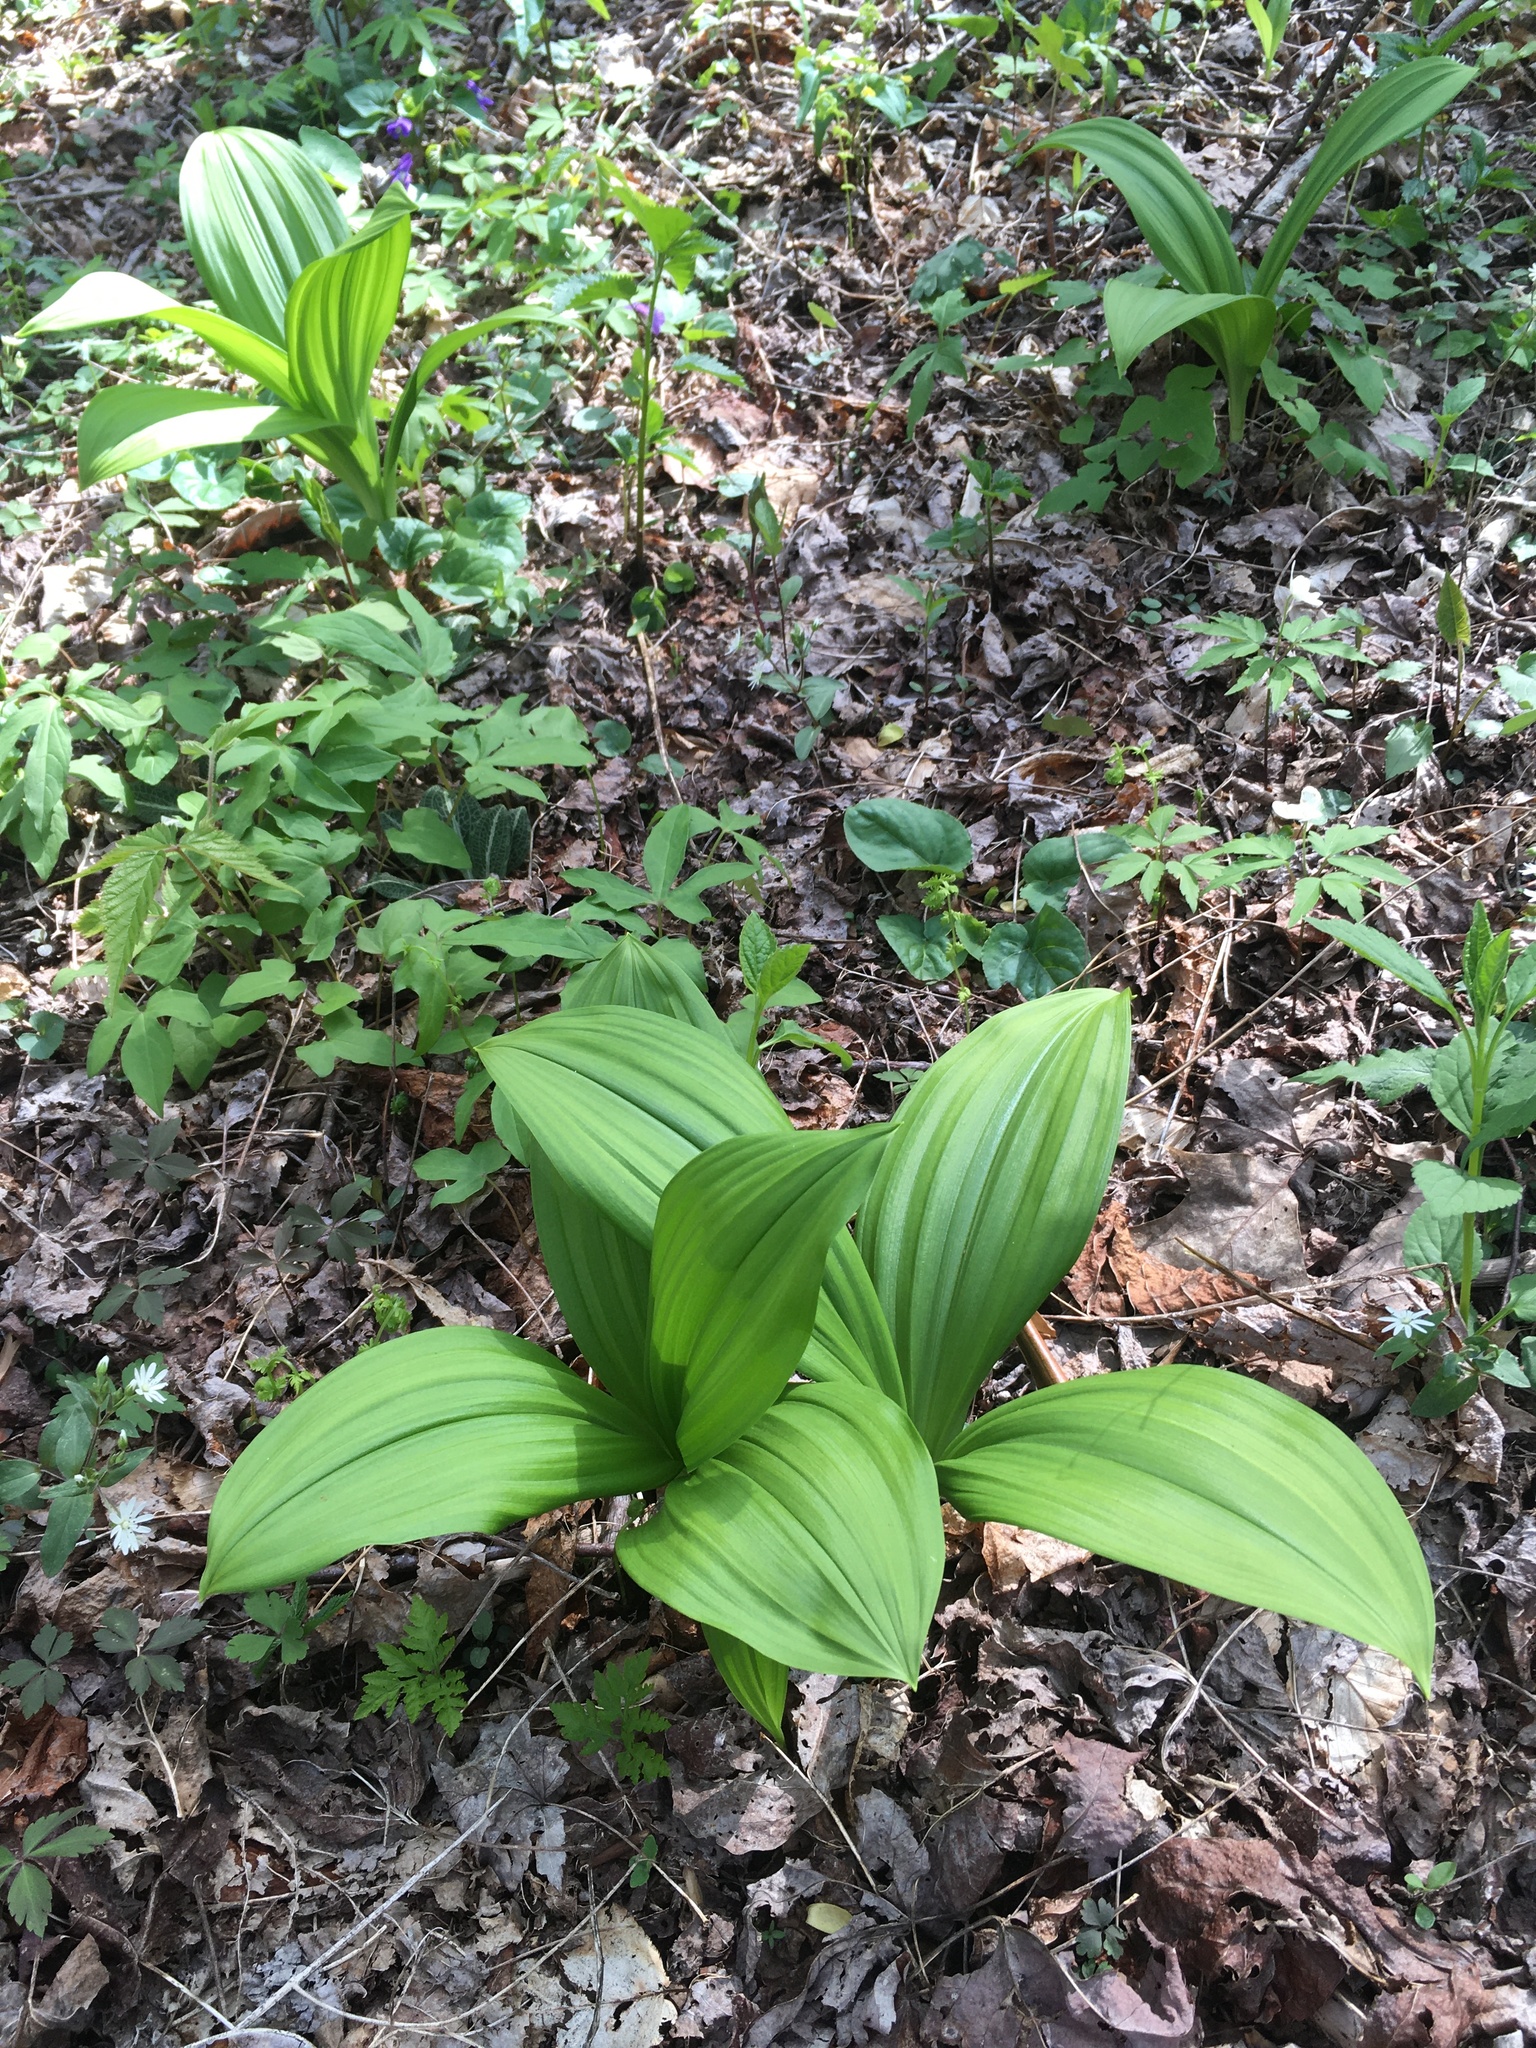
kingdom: Plantae
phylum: Tracheophyta
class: Liliopsida
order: Liliales
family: Melanthiaceae
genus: Veratrum
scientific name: Veratrum viride
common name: American false hellebore
